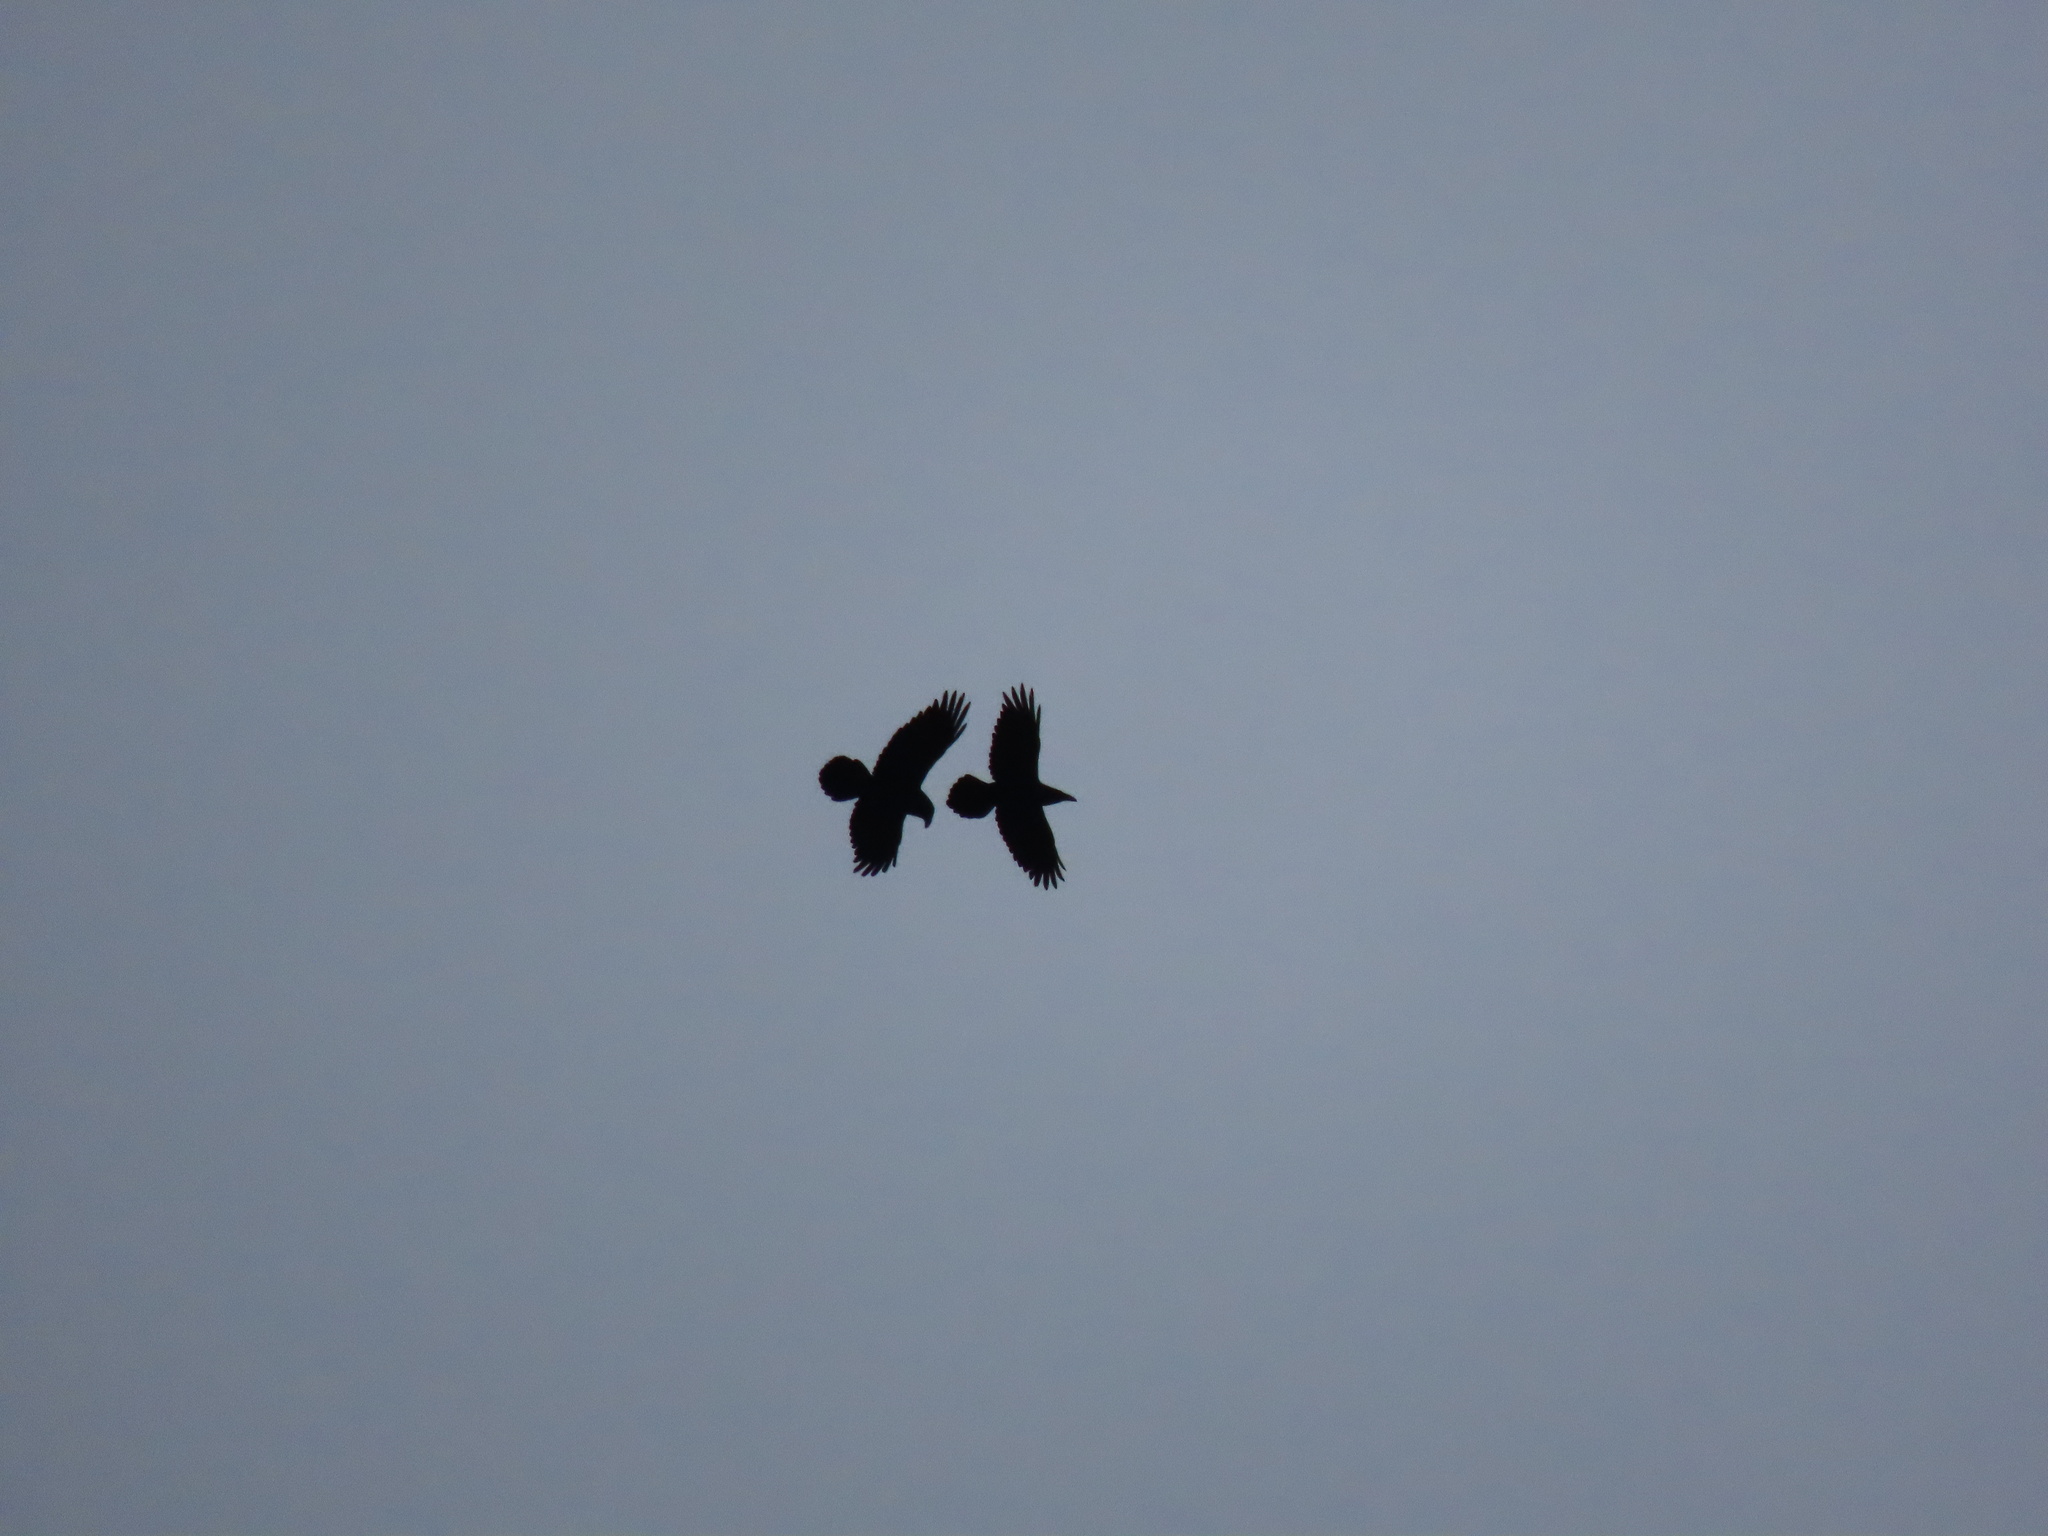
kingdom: Animalia
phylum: Chordata
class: Aves
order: Passeriformes
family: Corvidae
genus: Corvus
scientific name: Corvus corax
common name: Common raven
